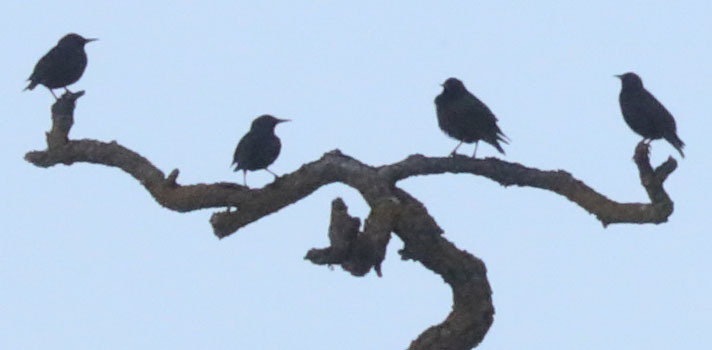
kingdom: Animalia
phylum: Chordata
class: Aves
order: Passeriformes
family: Sturnidae
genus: Sturnus
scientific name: Sturnus vulgaris
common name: Common starling
